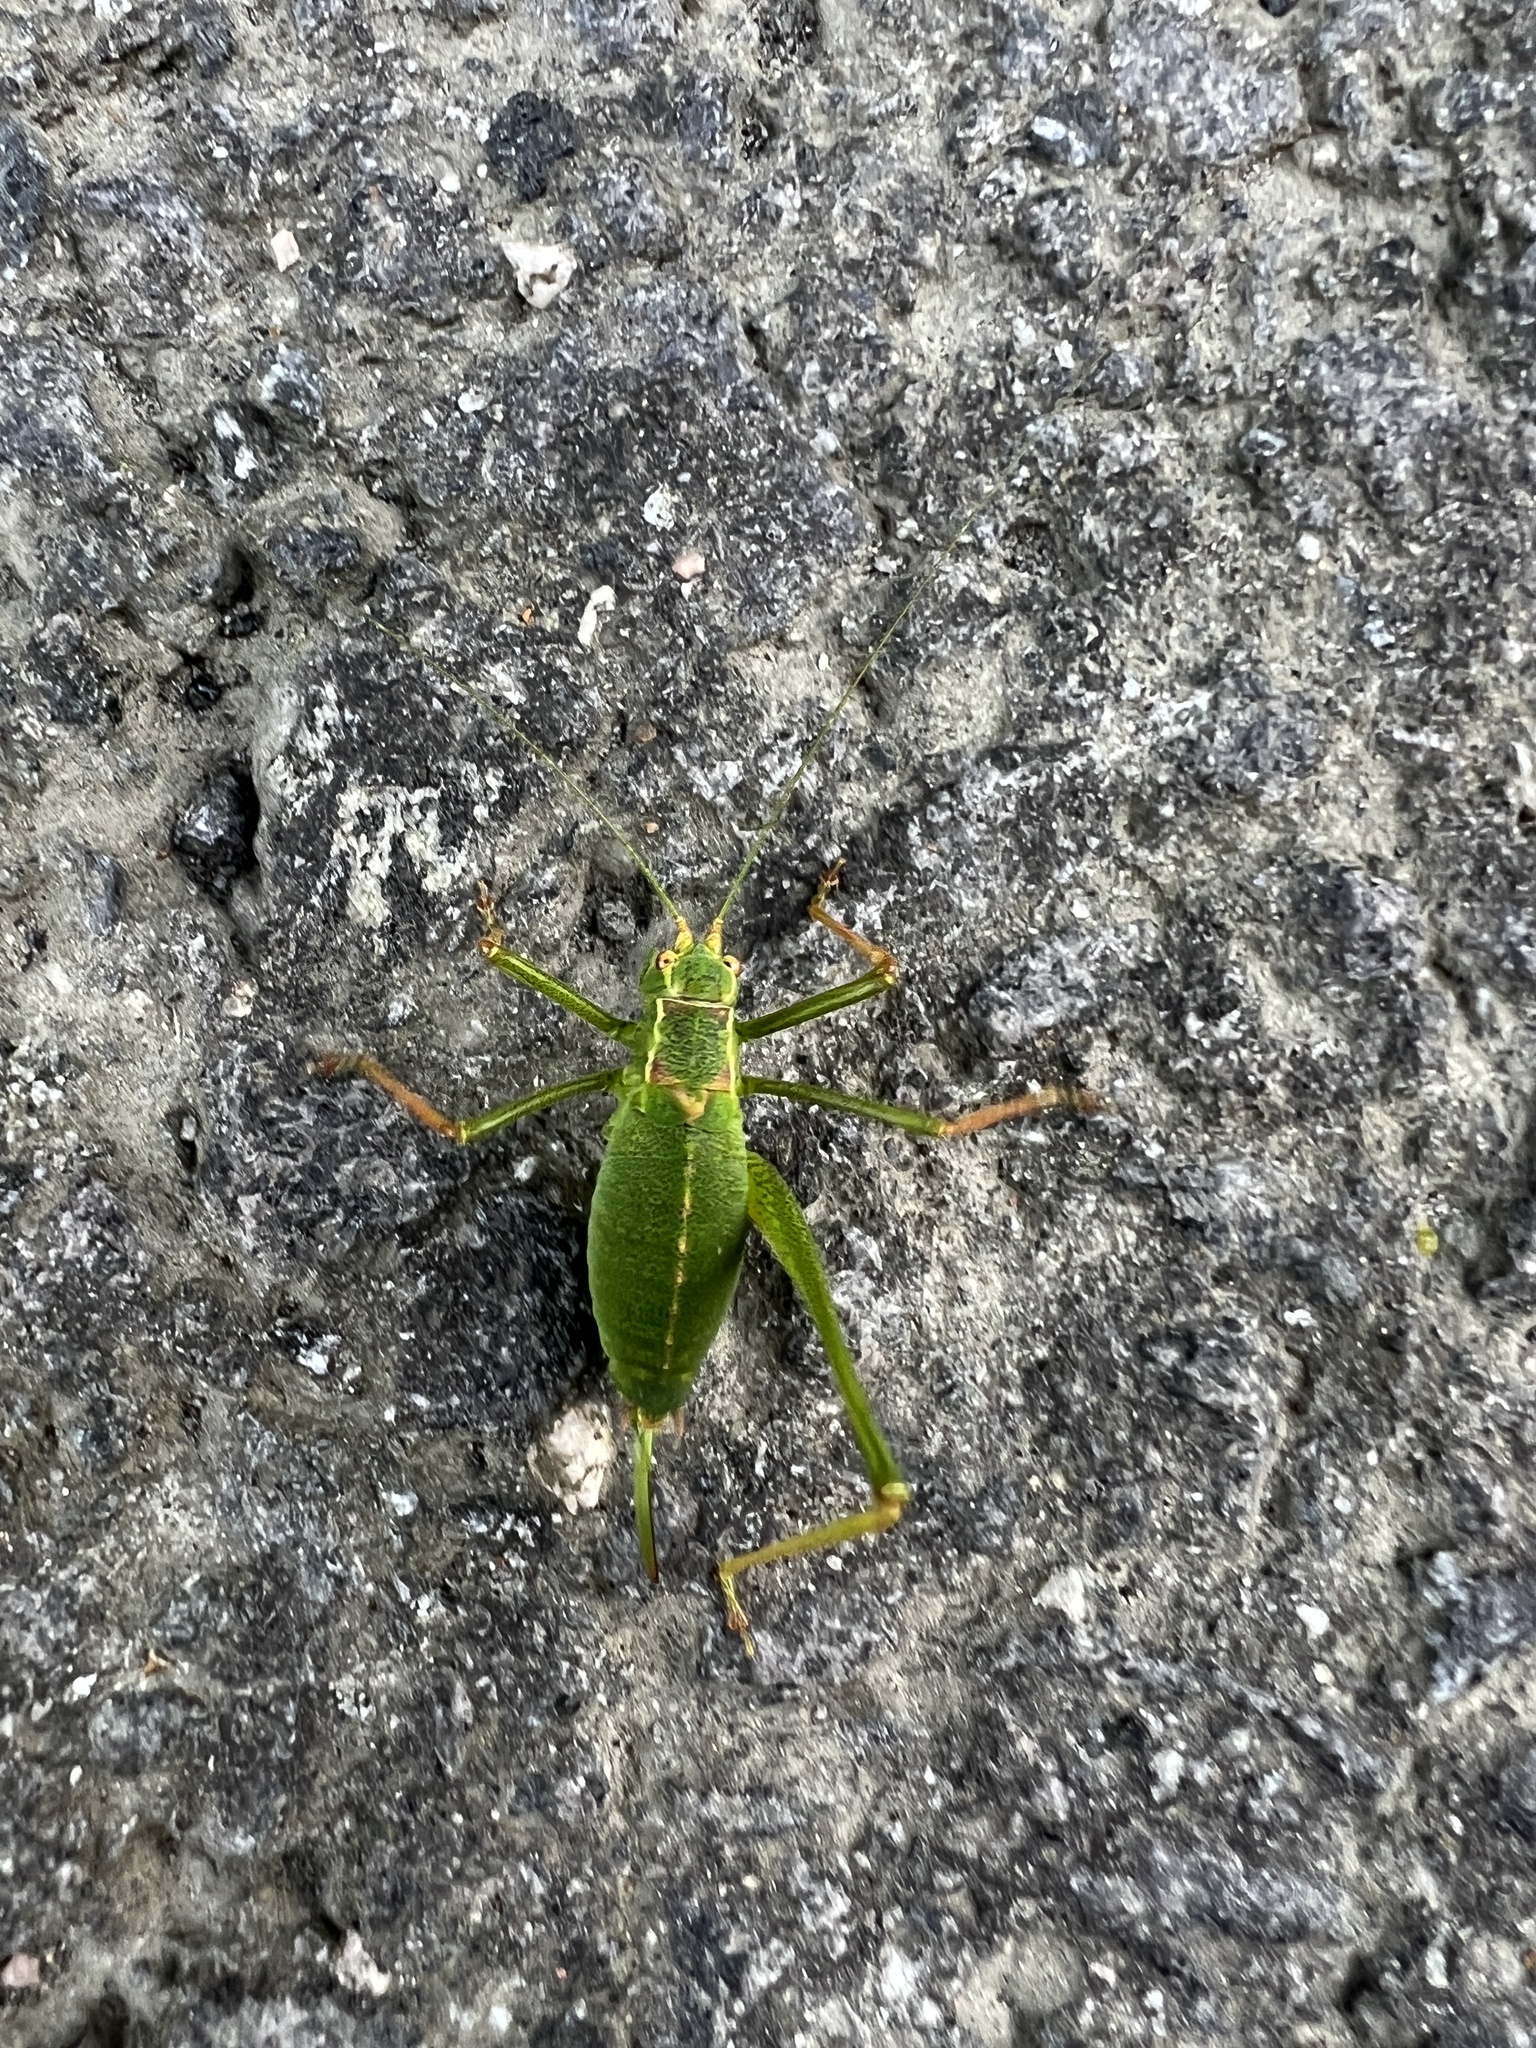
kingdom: Animalia
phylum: Arthropoda
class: Insecta
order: Orthoptera
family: Tettigoniidae
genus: Leptophyes
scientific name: Leptophyes punctatissima
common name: Speckled bush-cricket
